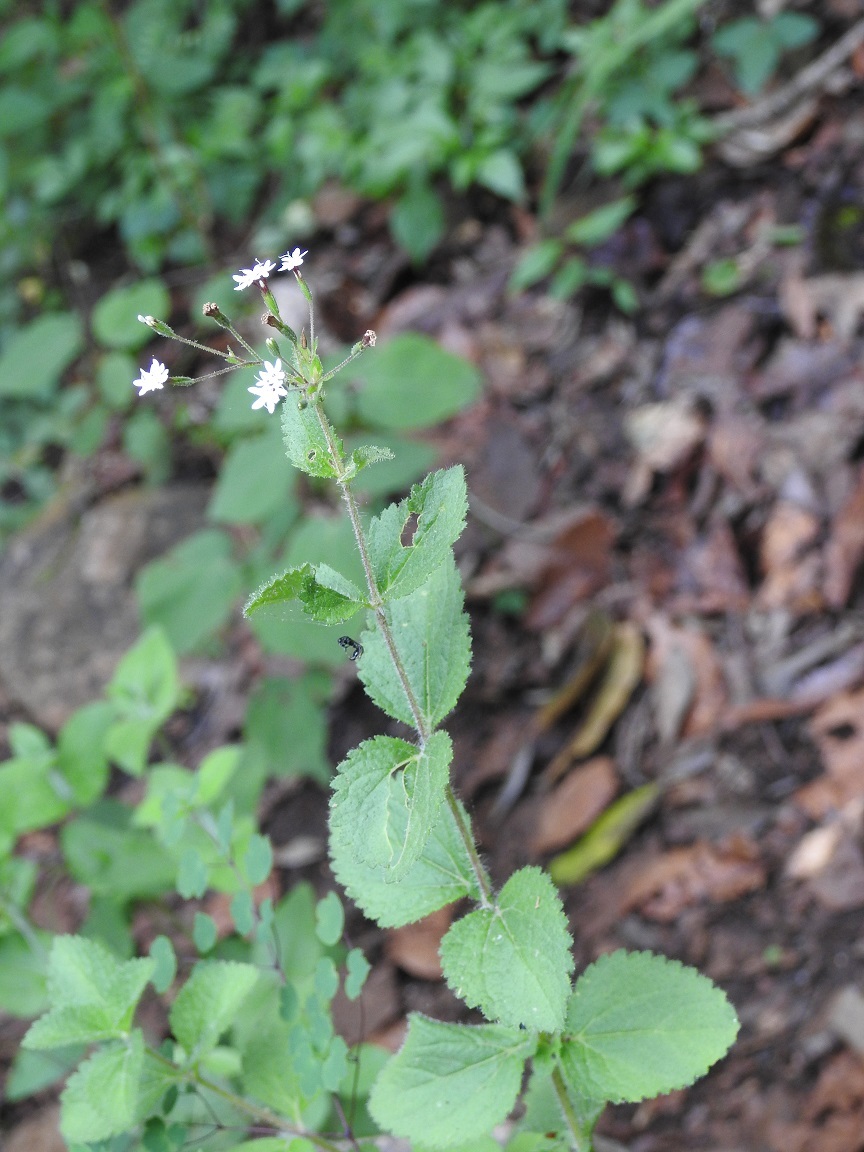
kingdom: Plantae
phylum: Tracheophyta
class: Magnoliopsida
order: Asterales
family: Asteraceae
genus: Stevia
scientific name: Stevia elatior
